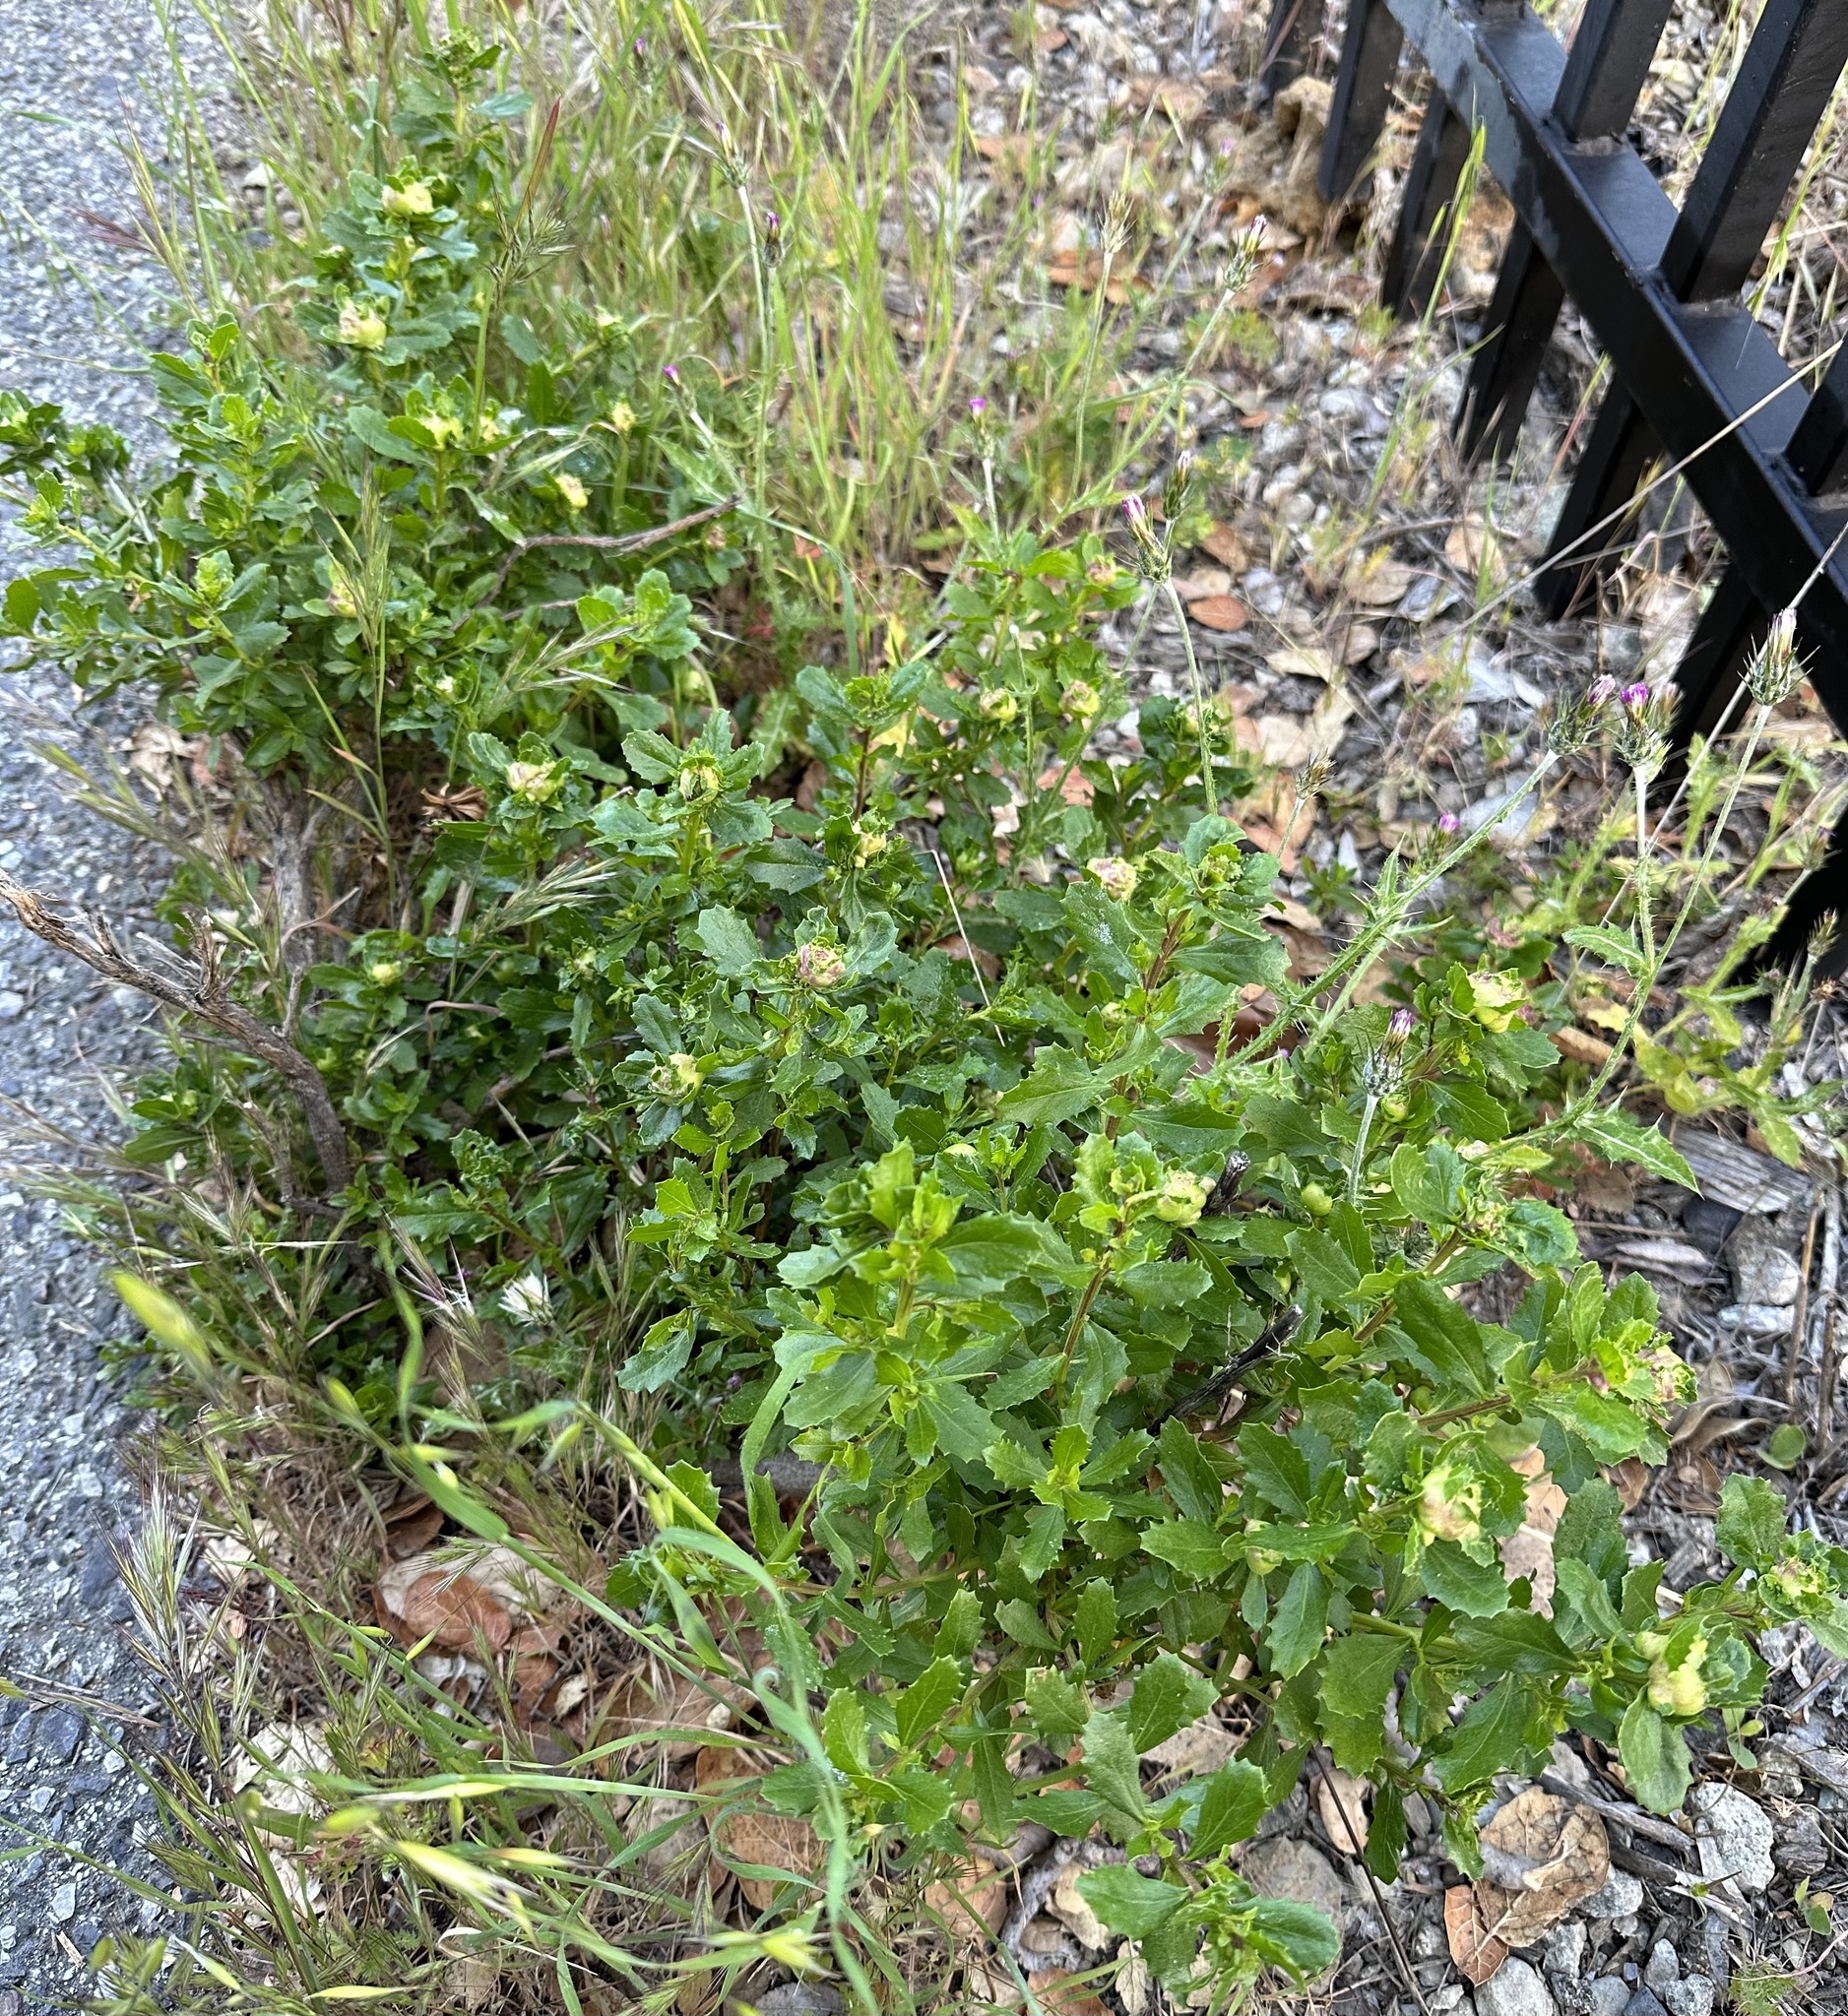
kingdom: Plantae
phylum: Tracheophyta
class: Magnoliopsida
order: Asterales
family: Asteraceae
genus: Baccharis
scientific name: Baccharis pilularis
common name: Coyotebrush
